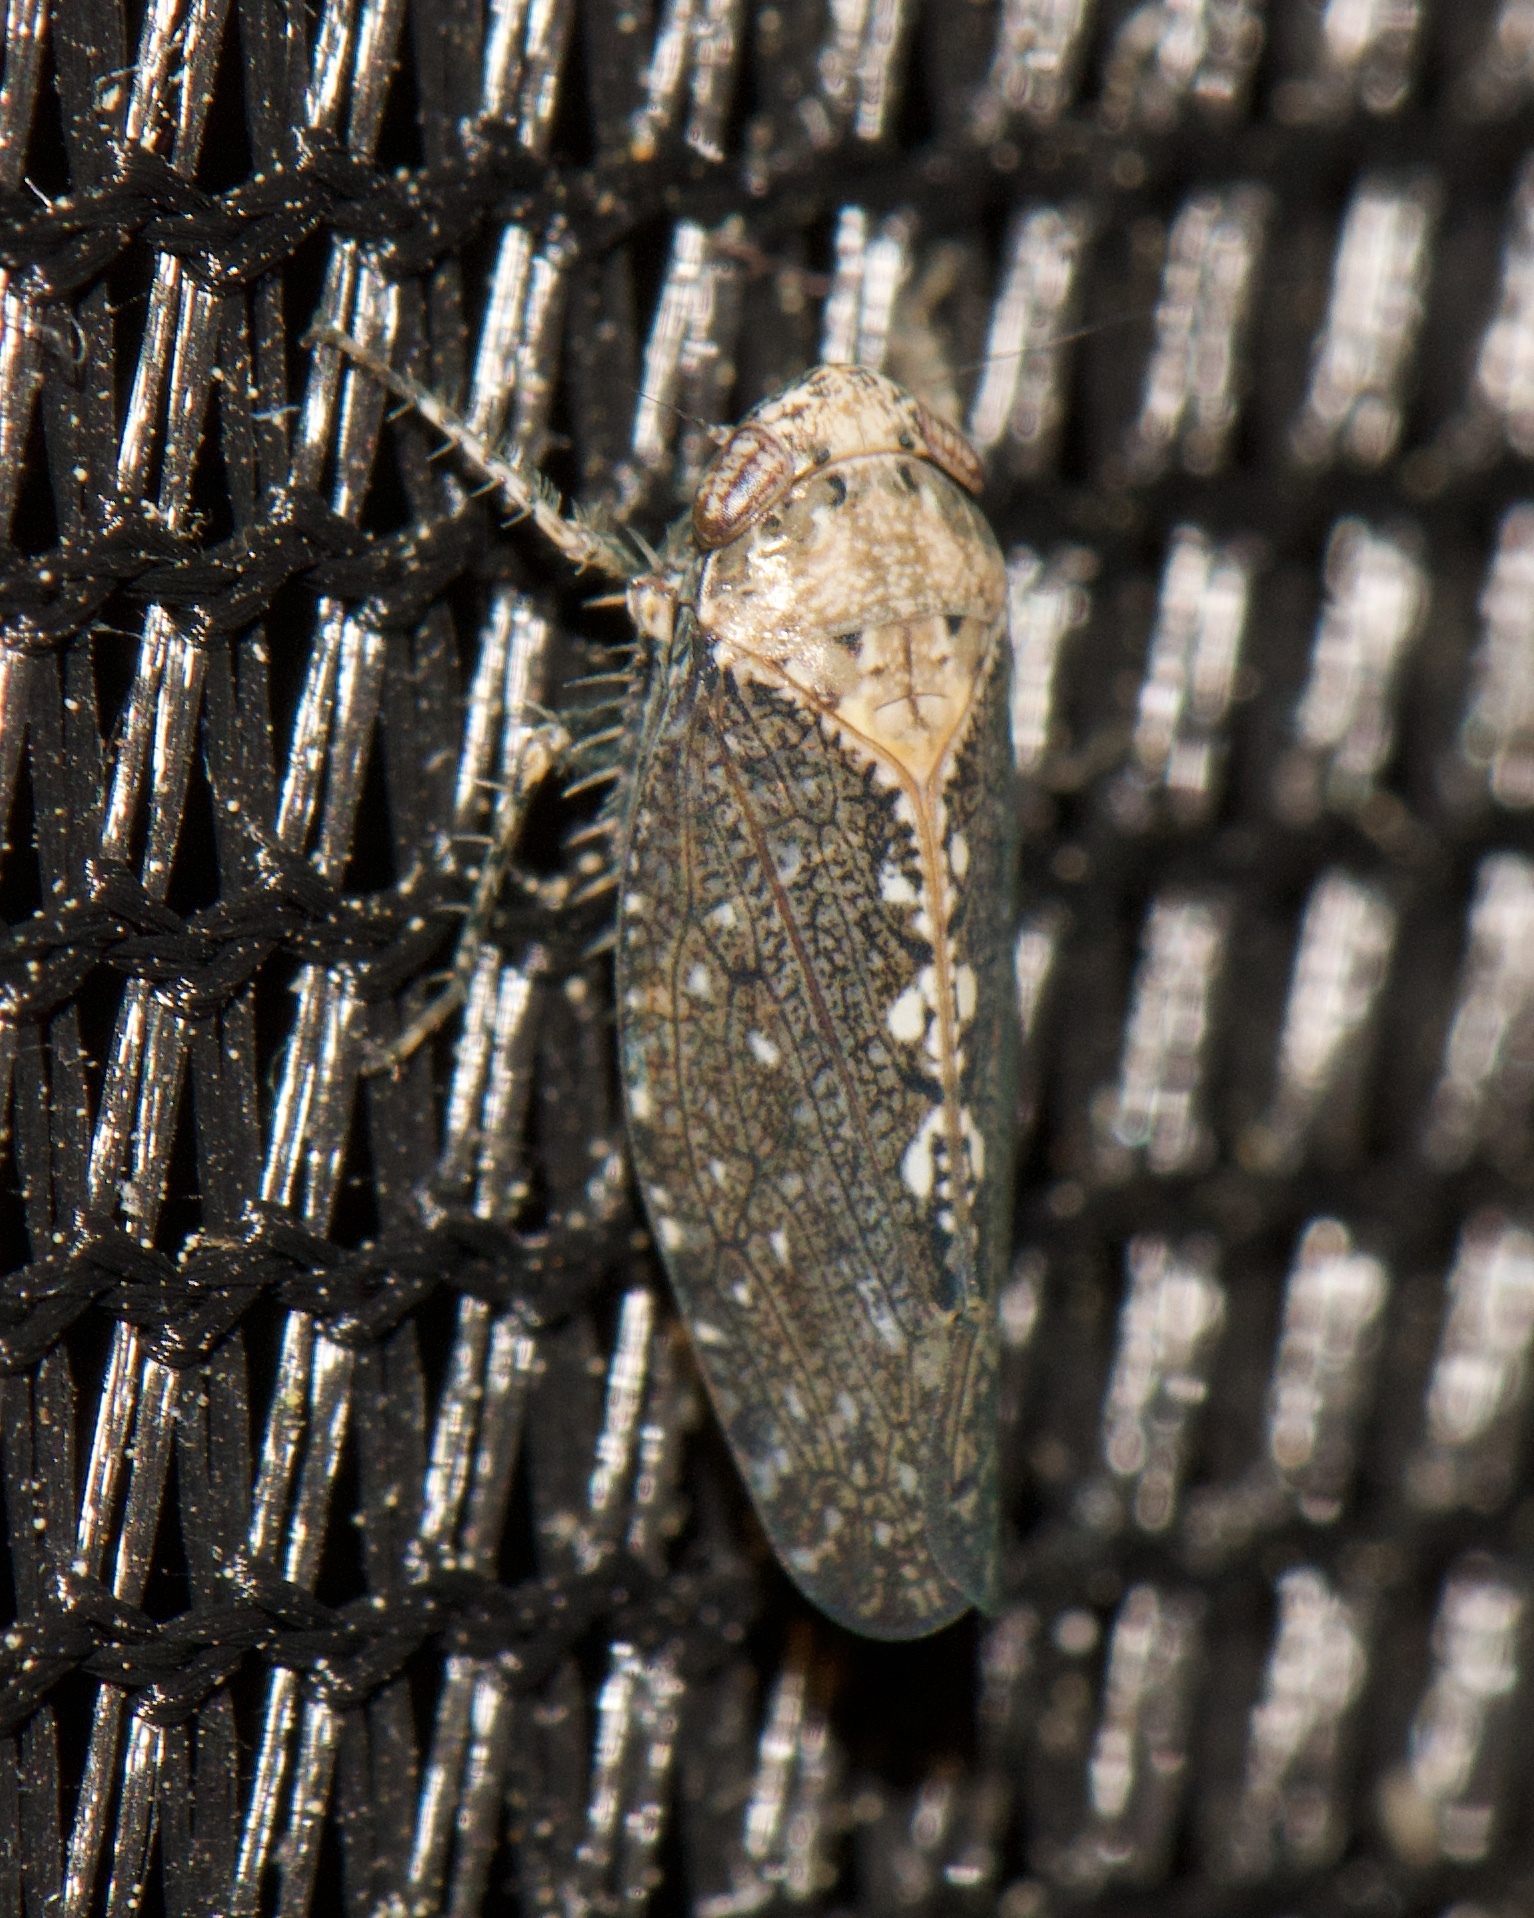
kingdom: Animalia
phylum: Arthropoda
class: Insecta
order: Hemiptera
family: Cicadellidae
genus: Excultanus
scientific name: Excultanus excultus
